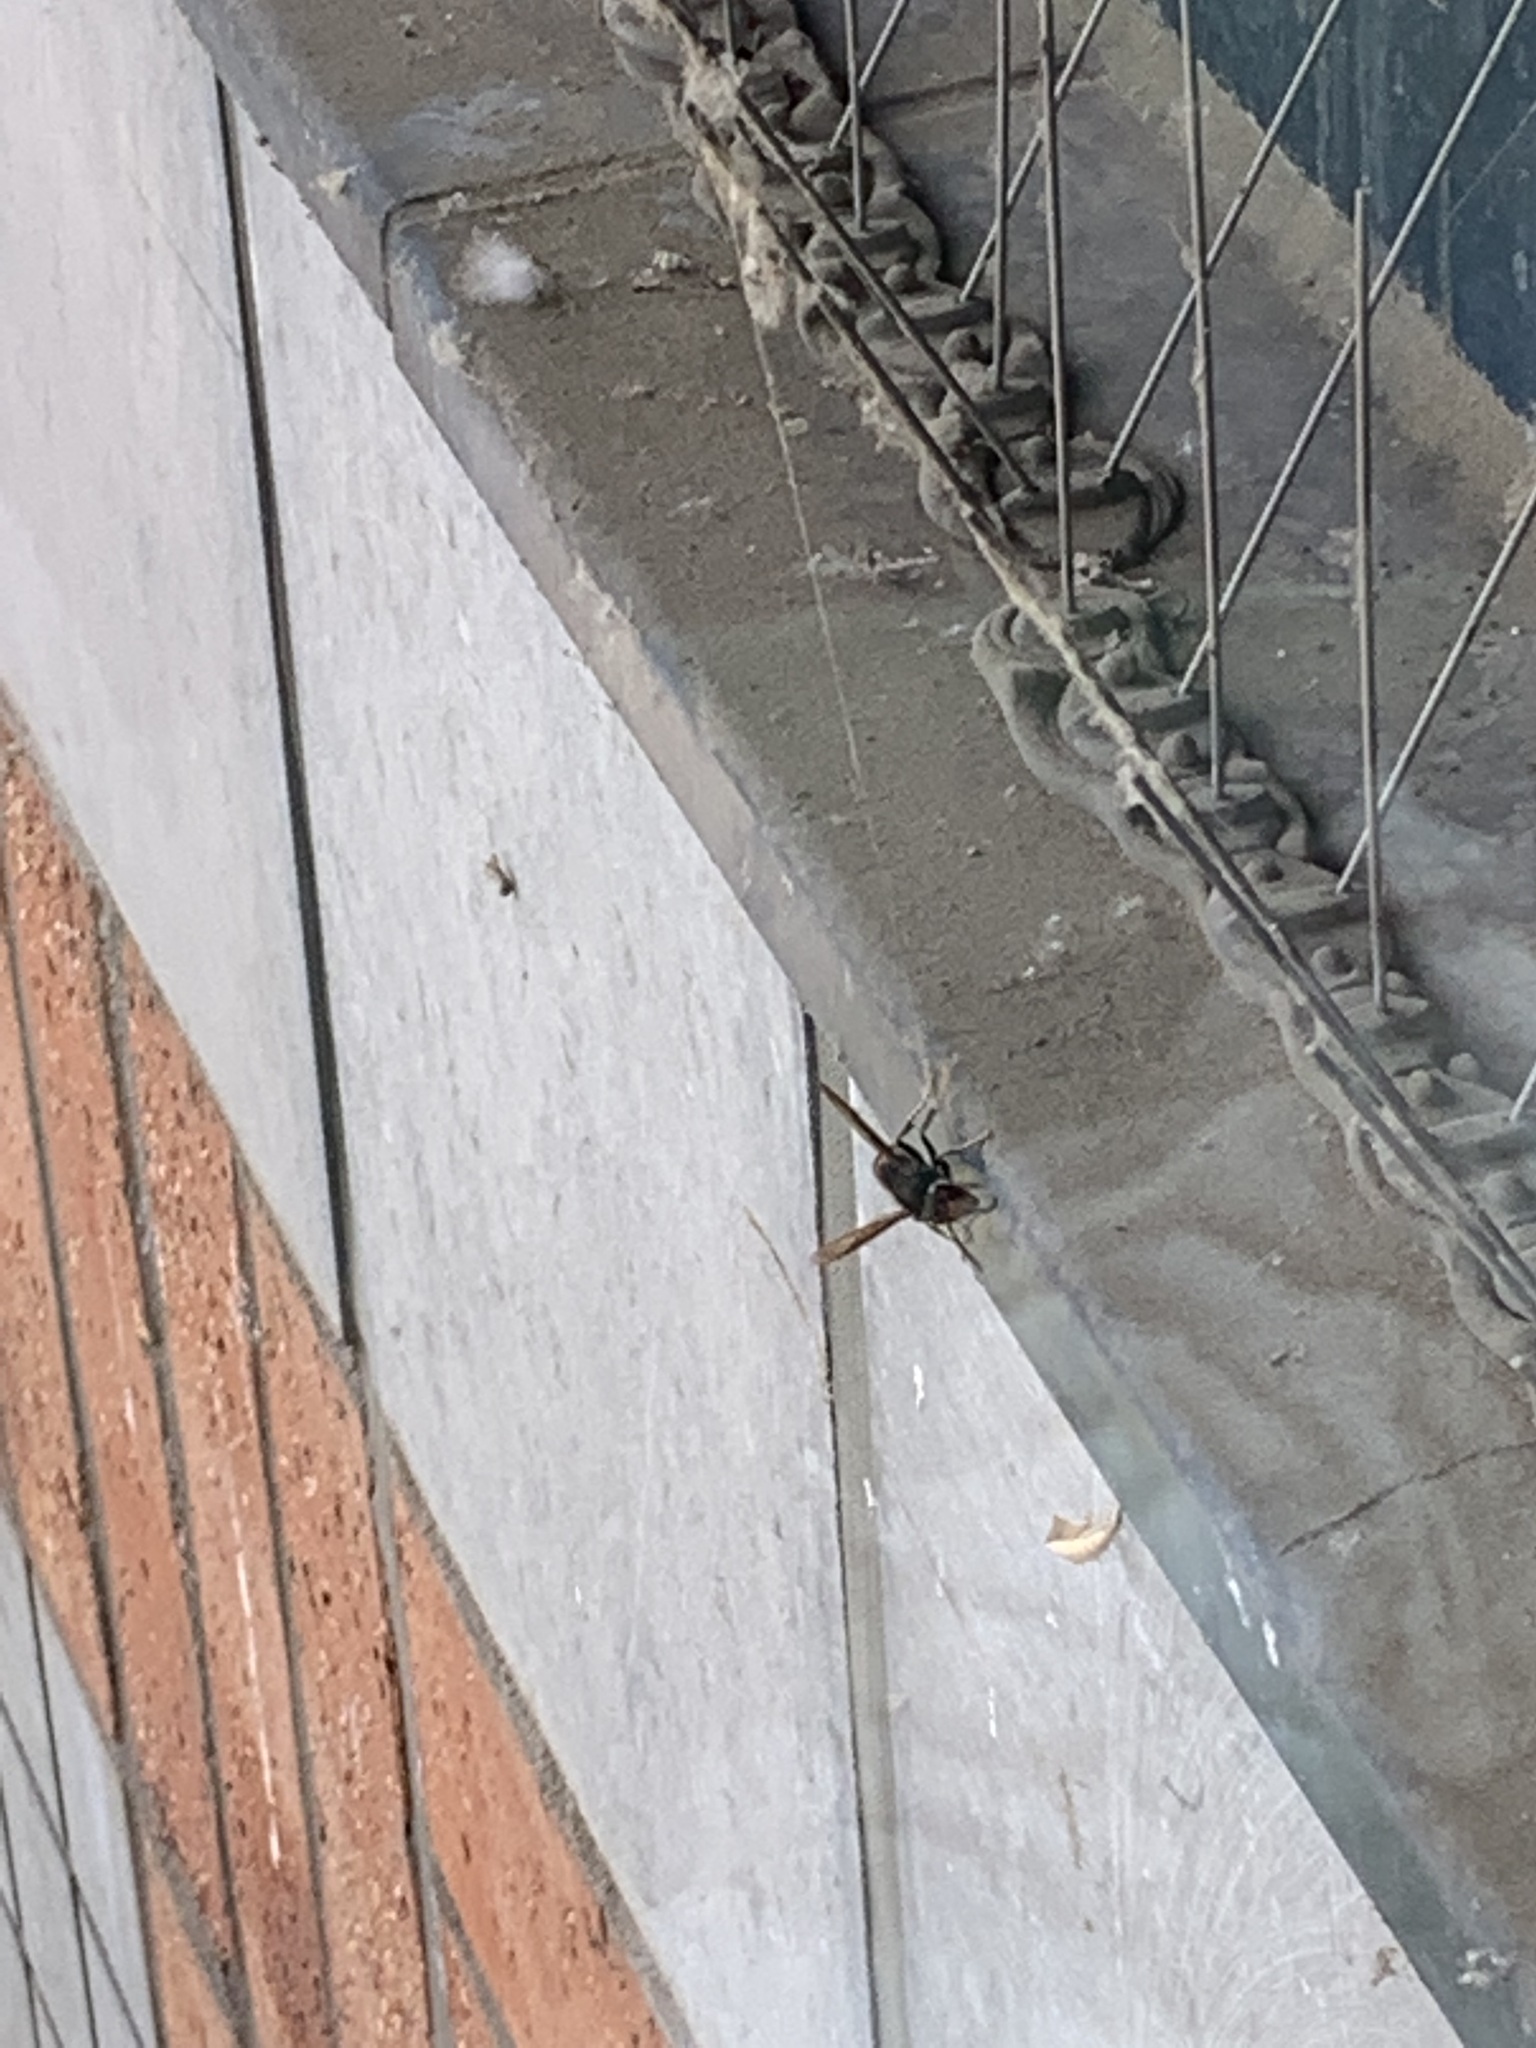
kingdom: Animalia
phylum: Arthropoda
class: Insecta
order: Hymenoptera
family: Vespidae
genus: Vespa
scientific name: Vespa velutina
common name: Asian hornet
